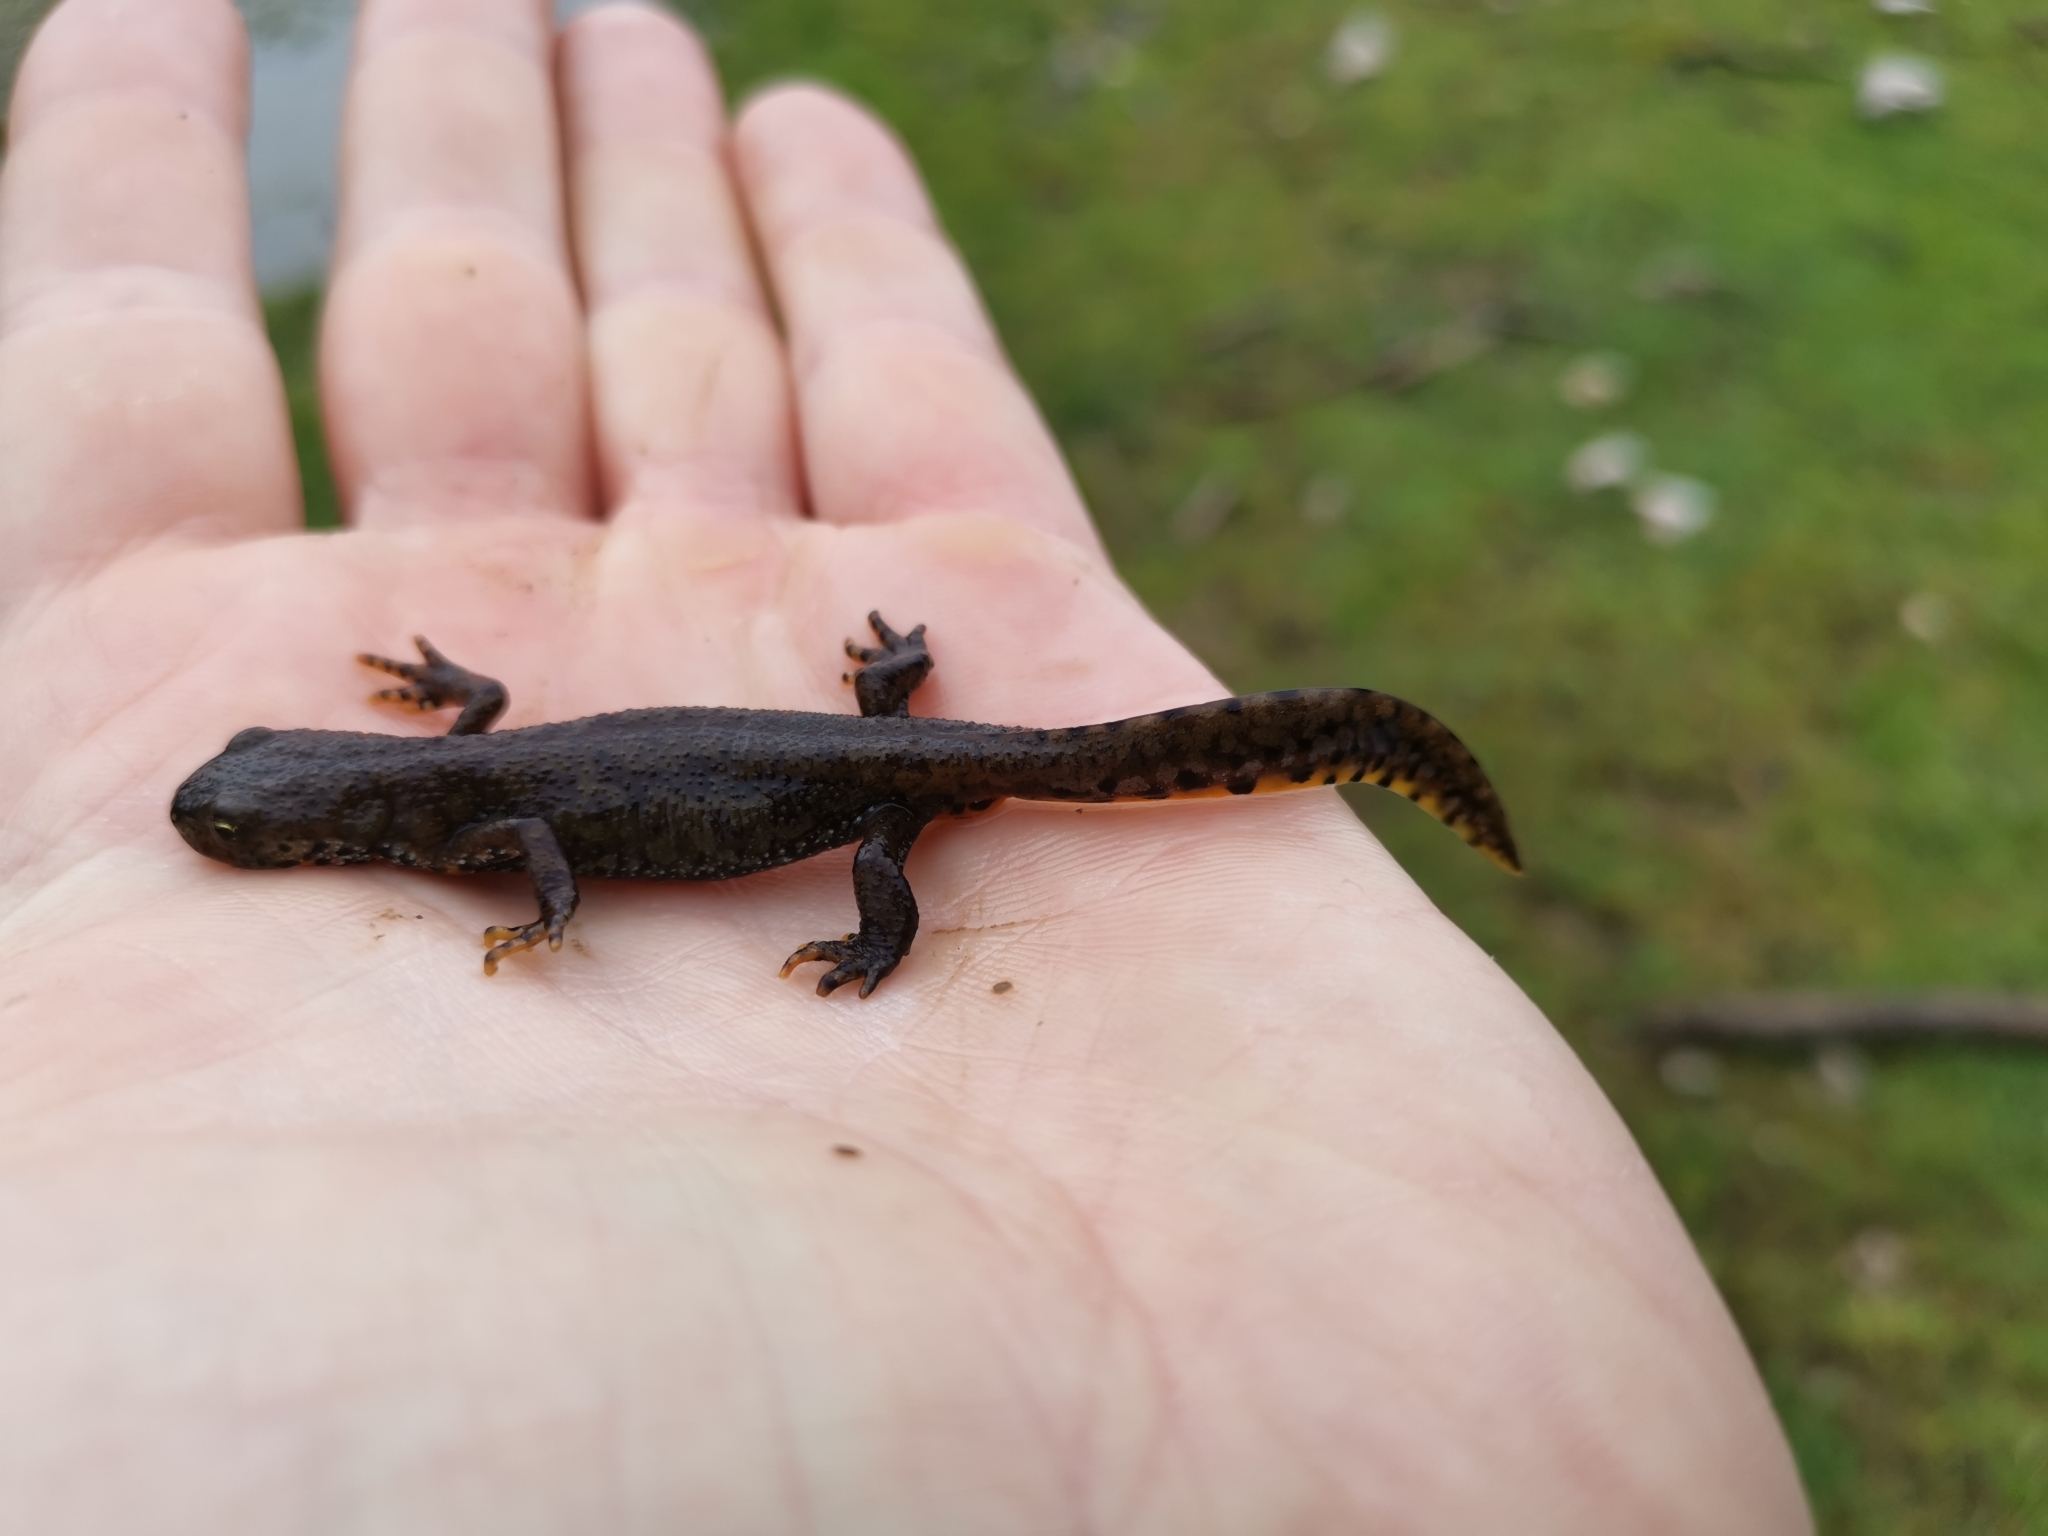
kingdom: Animalia
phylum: Chordata
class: Amphibia
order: Caudata
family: Salamandridae
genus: Ichthyosaura
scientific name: Ichthyosaura alpestris
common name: Alpine newt
